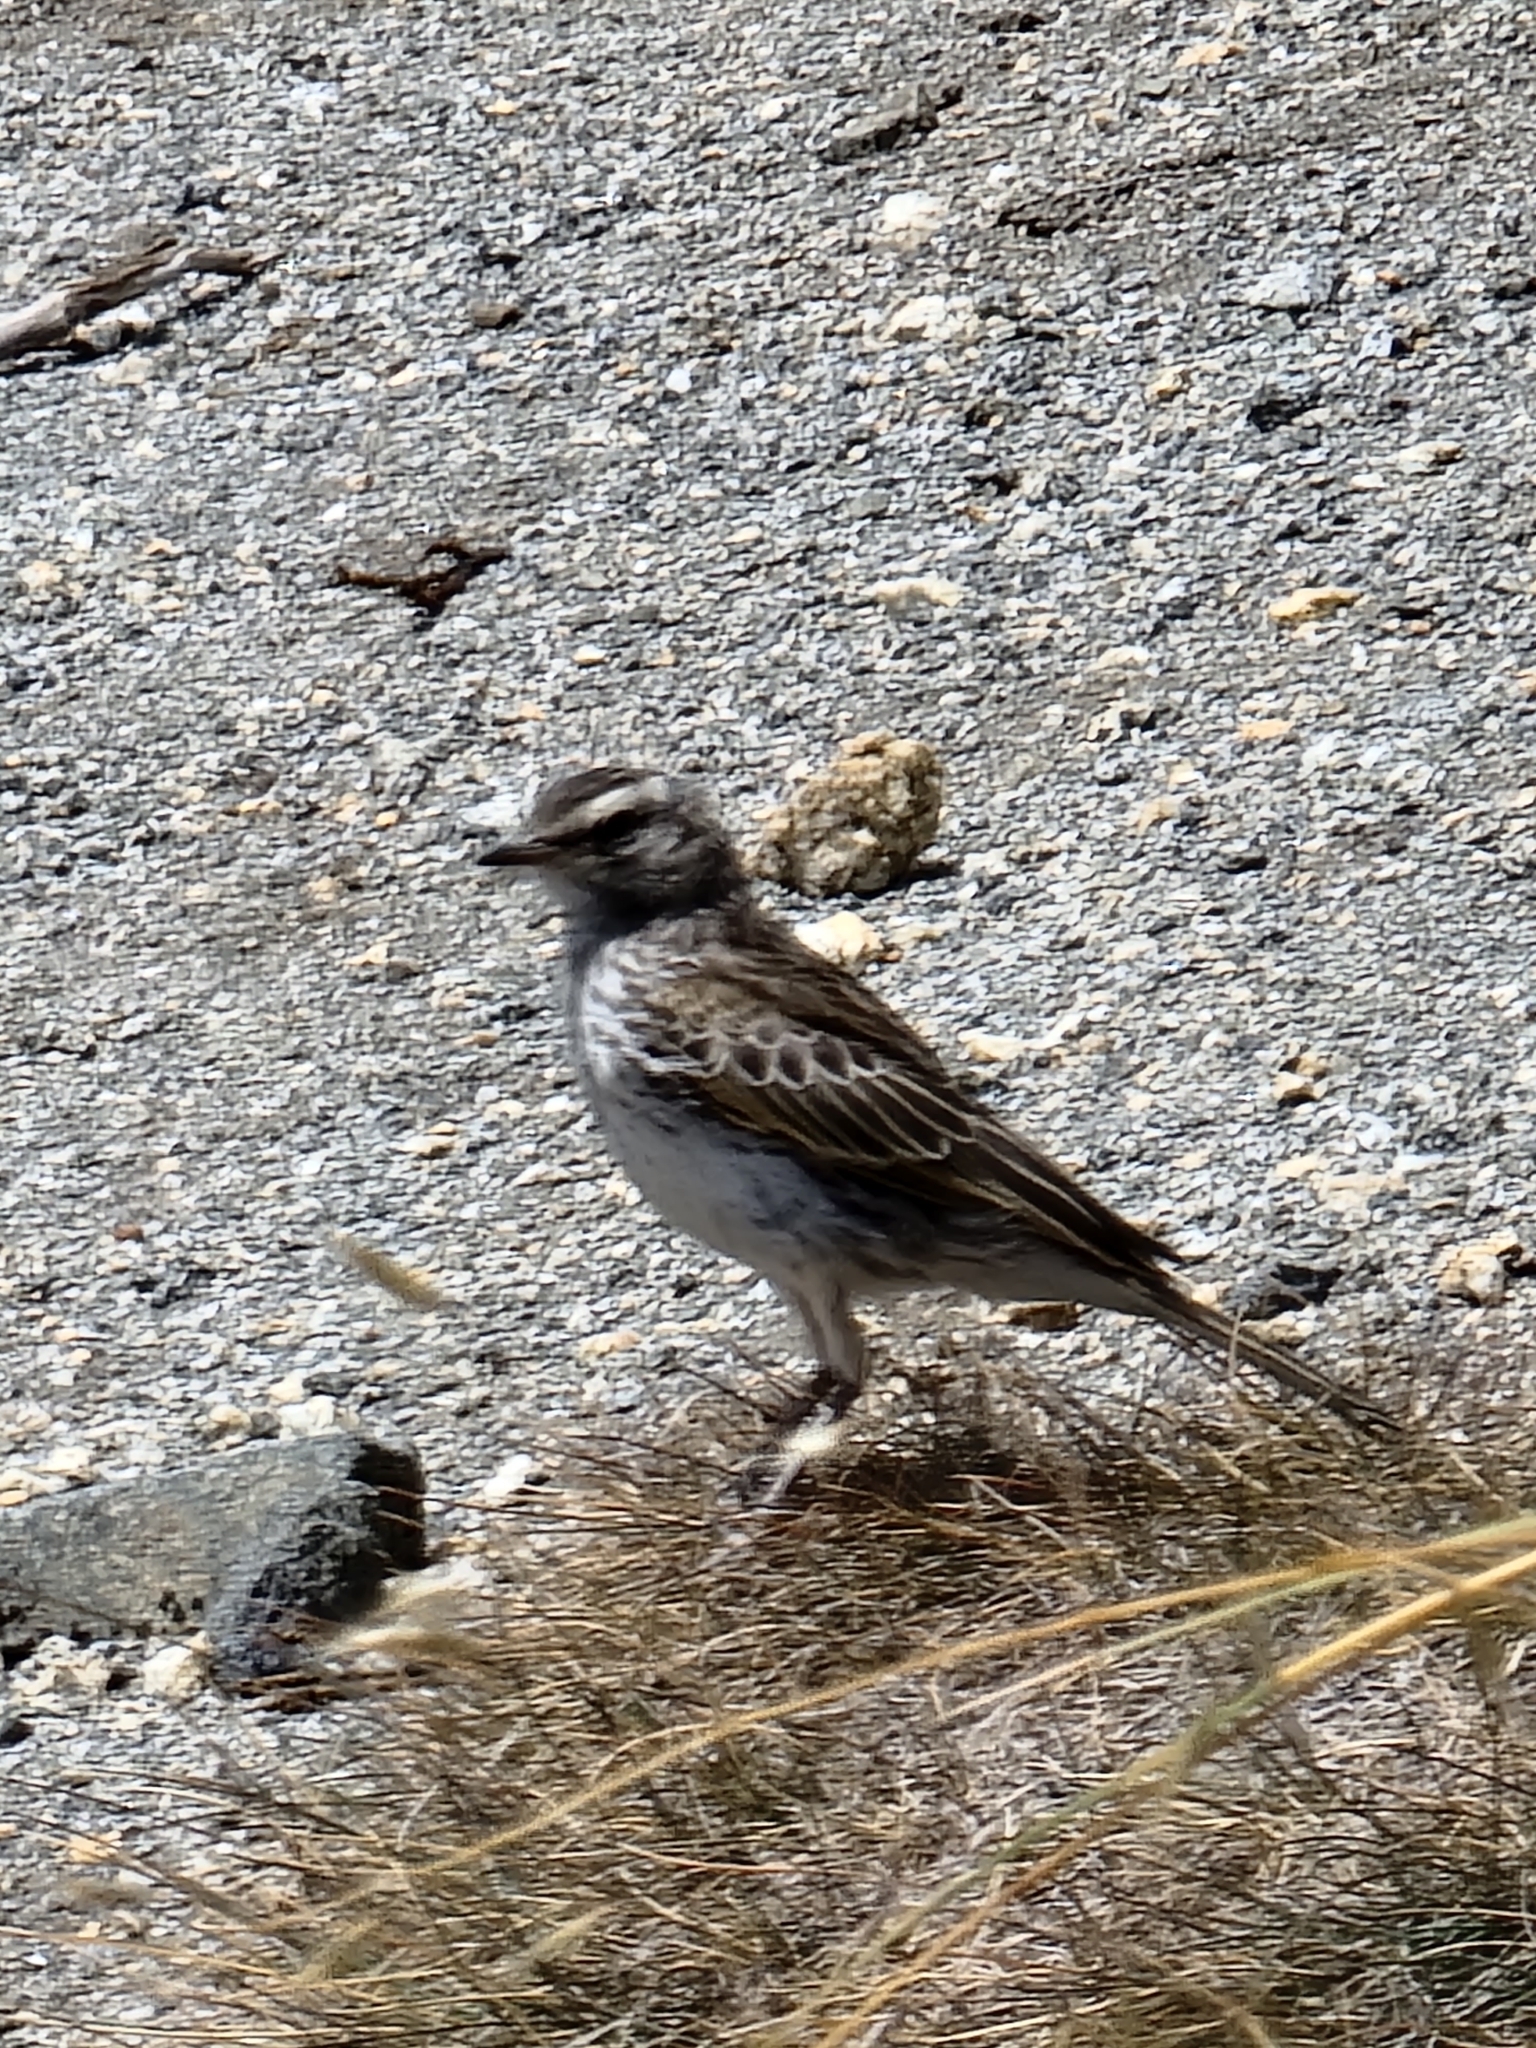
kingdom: Animalia
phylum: Chordata
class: Aves
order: Passeriformes
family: Motacillidae
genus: Anthus
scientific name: Anthus novaeseelandiae
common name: New zealand pipit
